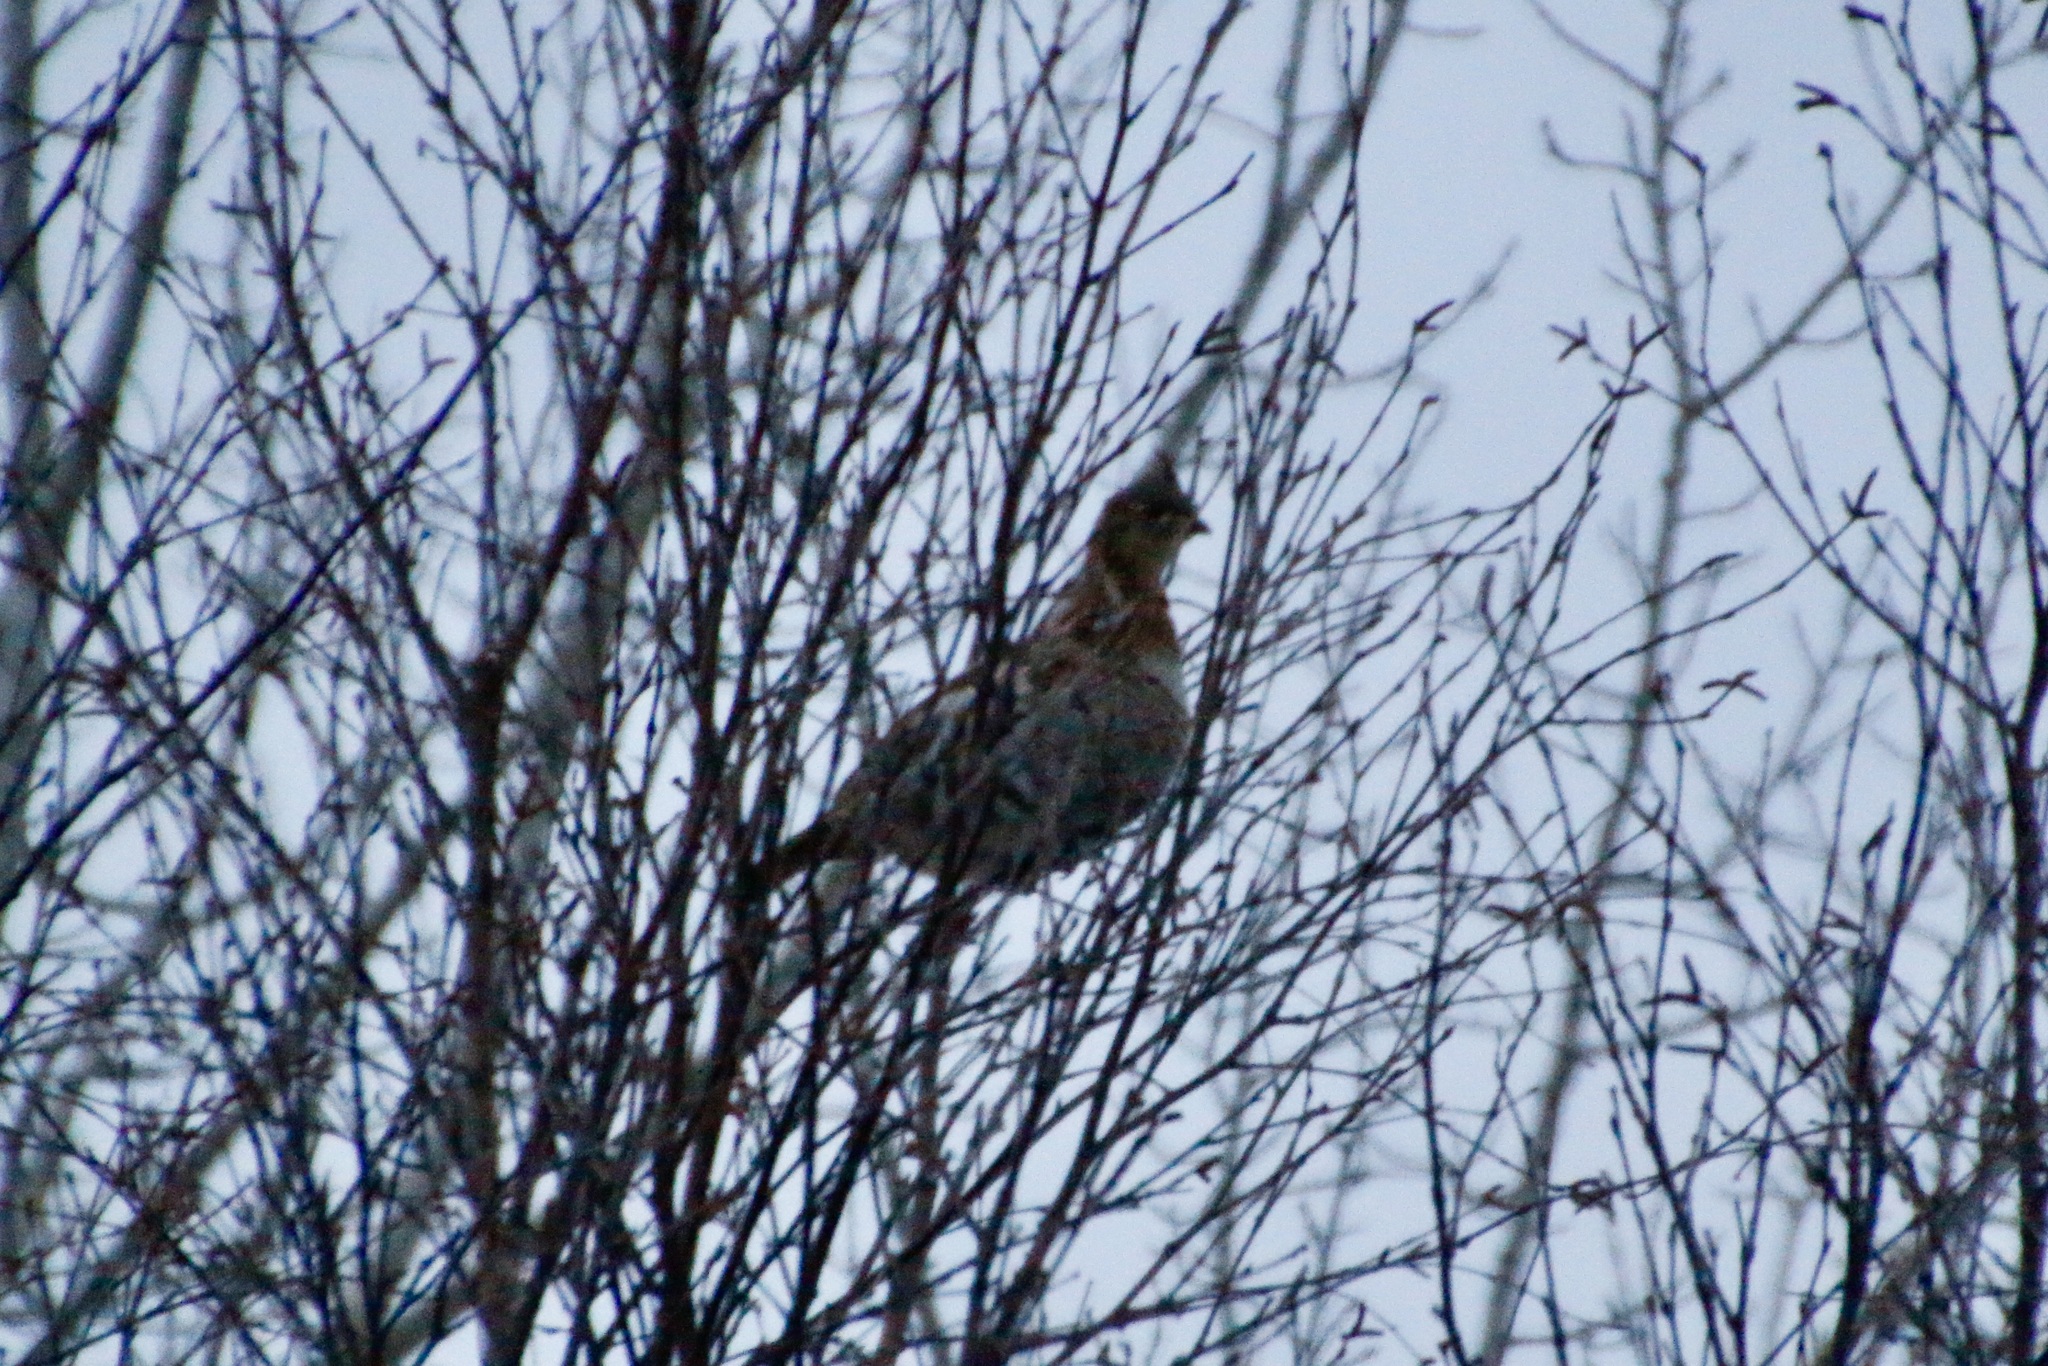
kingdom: Animalia
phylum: Chordata
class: Aves
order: Galliformes
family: Phasianidae
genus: Bonasa
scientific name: Bonasa umbellus
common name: Ruffed grouse
